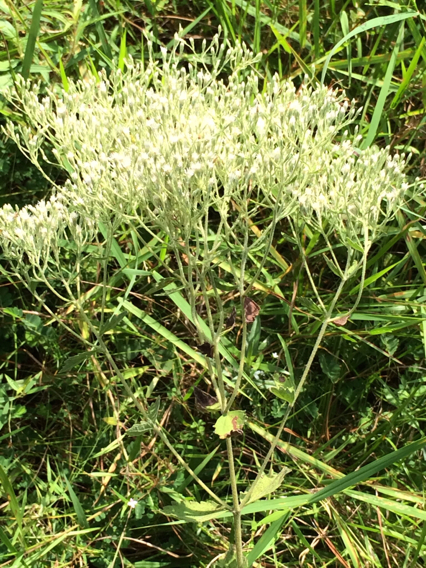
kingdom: Plantae
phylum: Tracheophyta
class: Magnoliopsida
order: Asterales
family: Asteraceae
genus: Eupatorium
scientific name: Eupatorium rotundifolium
